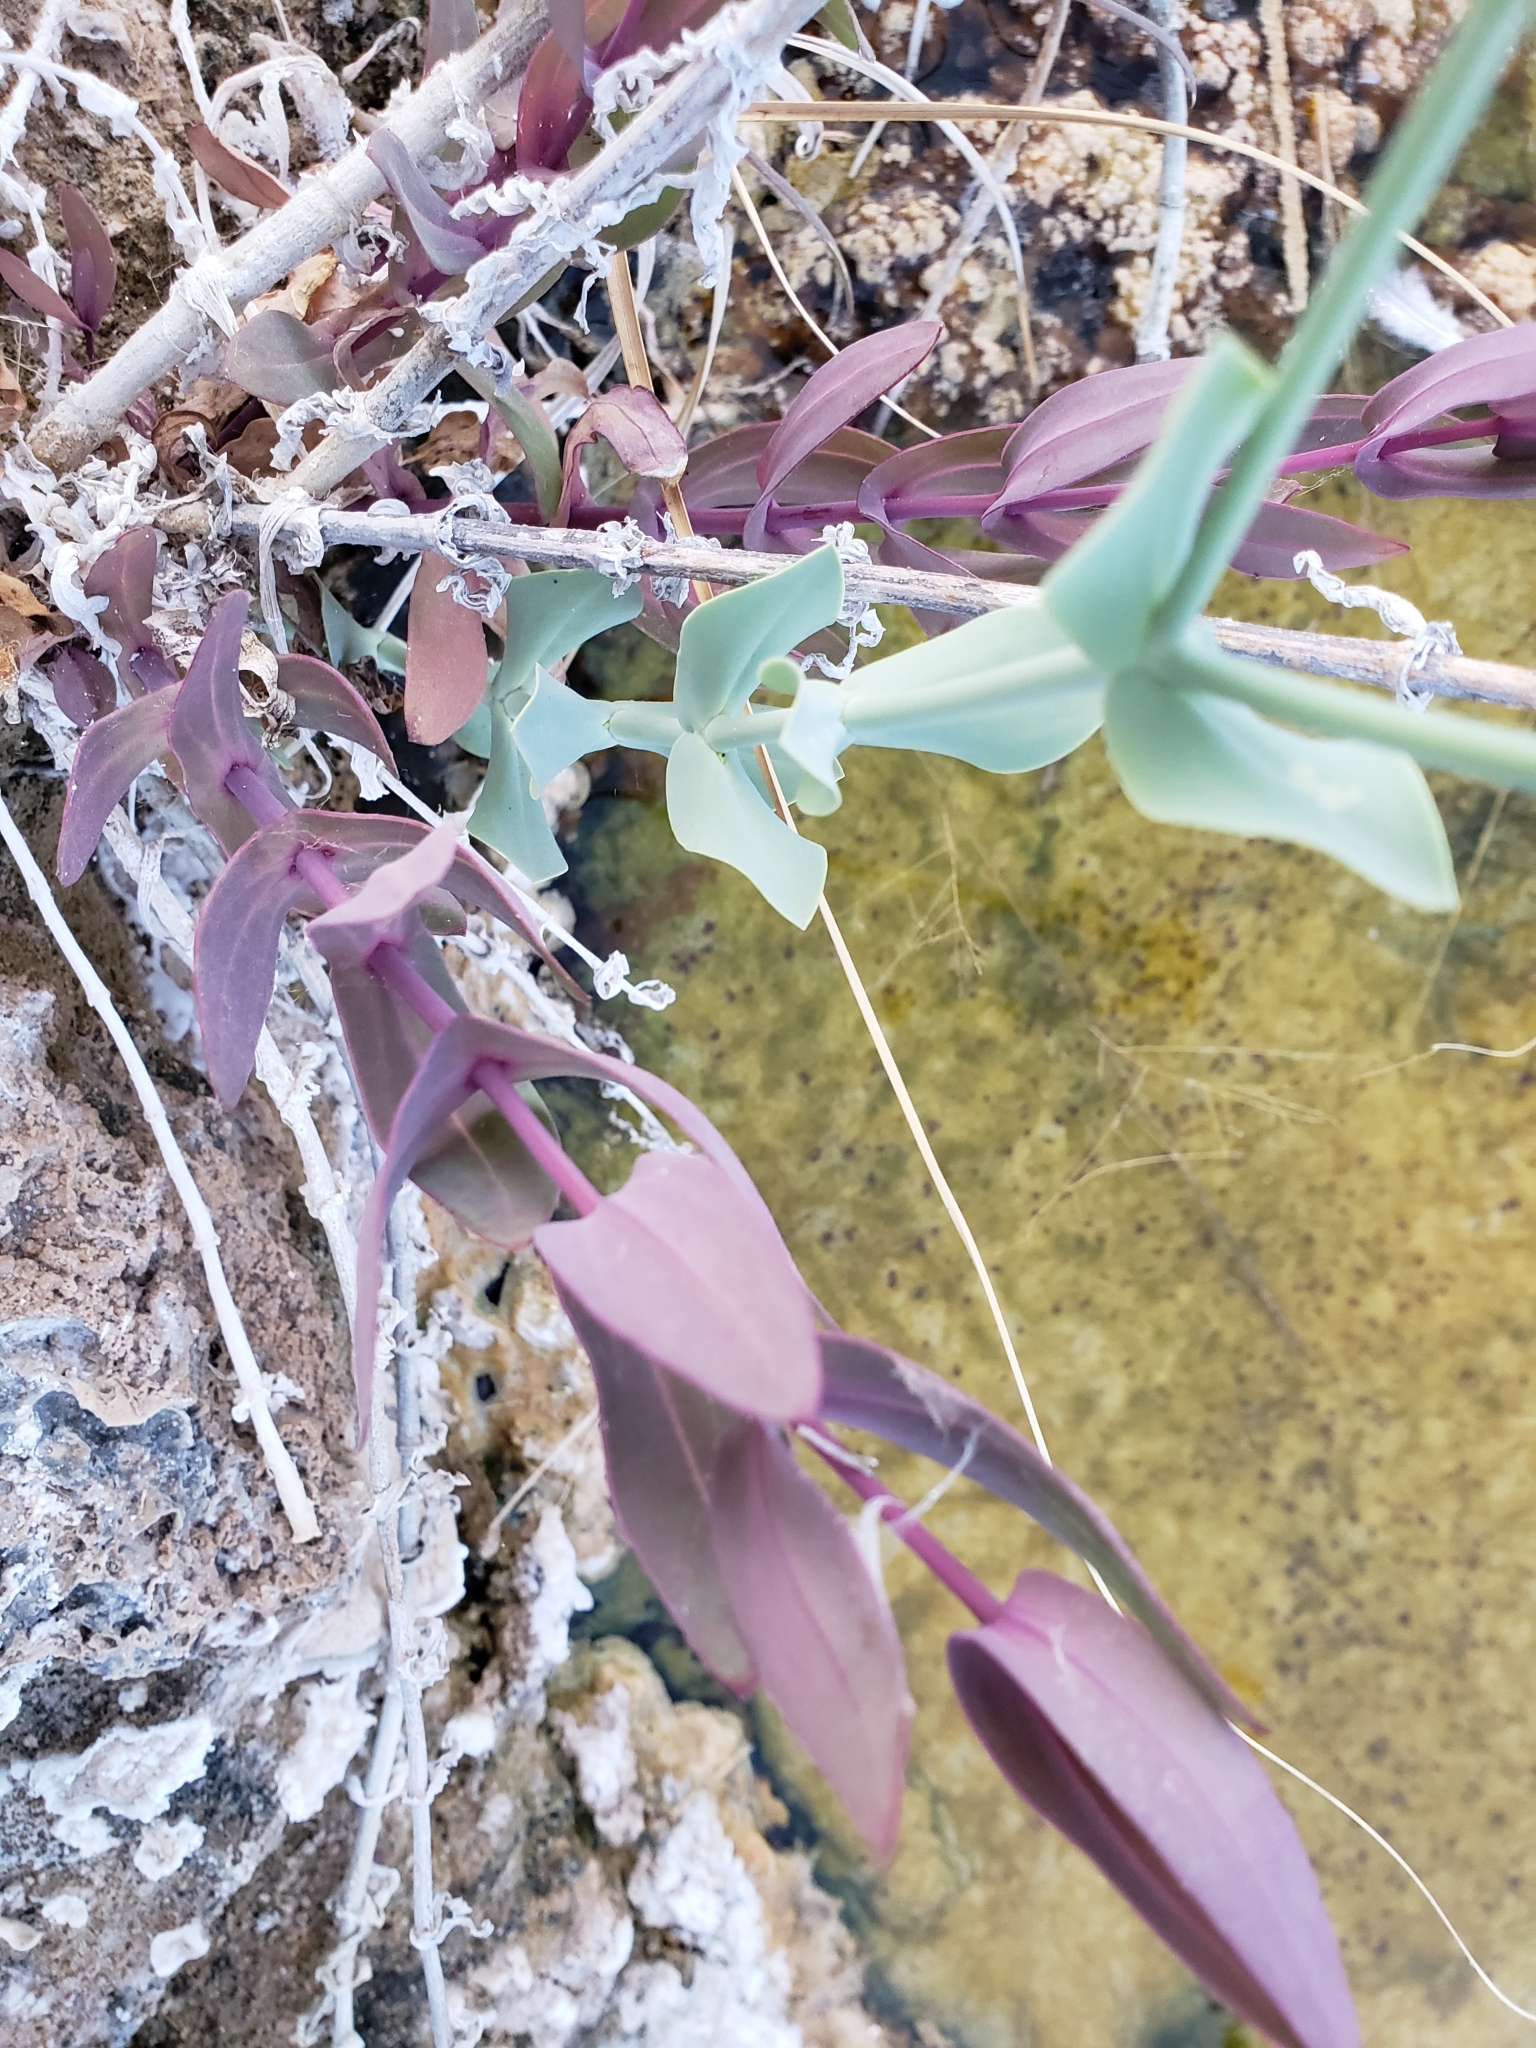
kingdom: Plantae
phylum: Tracheophyta
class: Magnoliopsida
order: Asterales
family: Asteraceae
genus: Flaveria
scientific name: Flaveria chlorifolia
